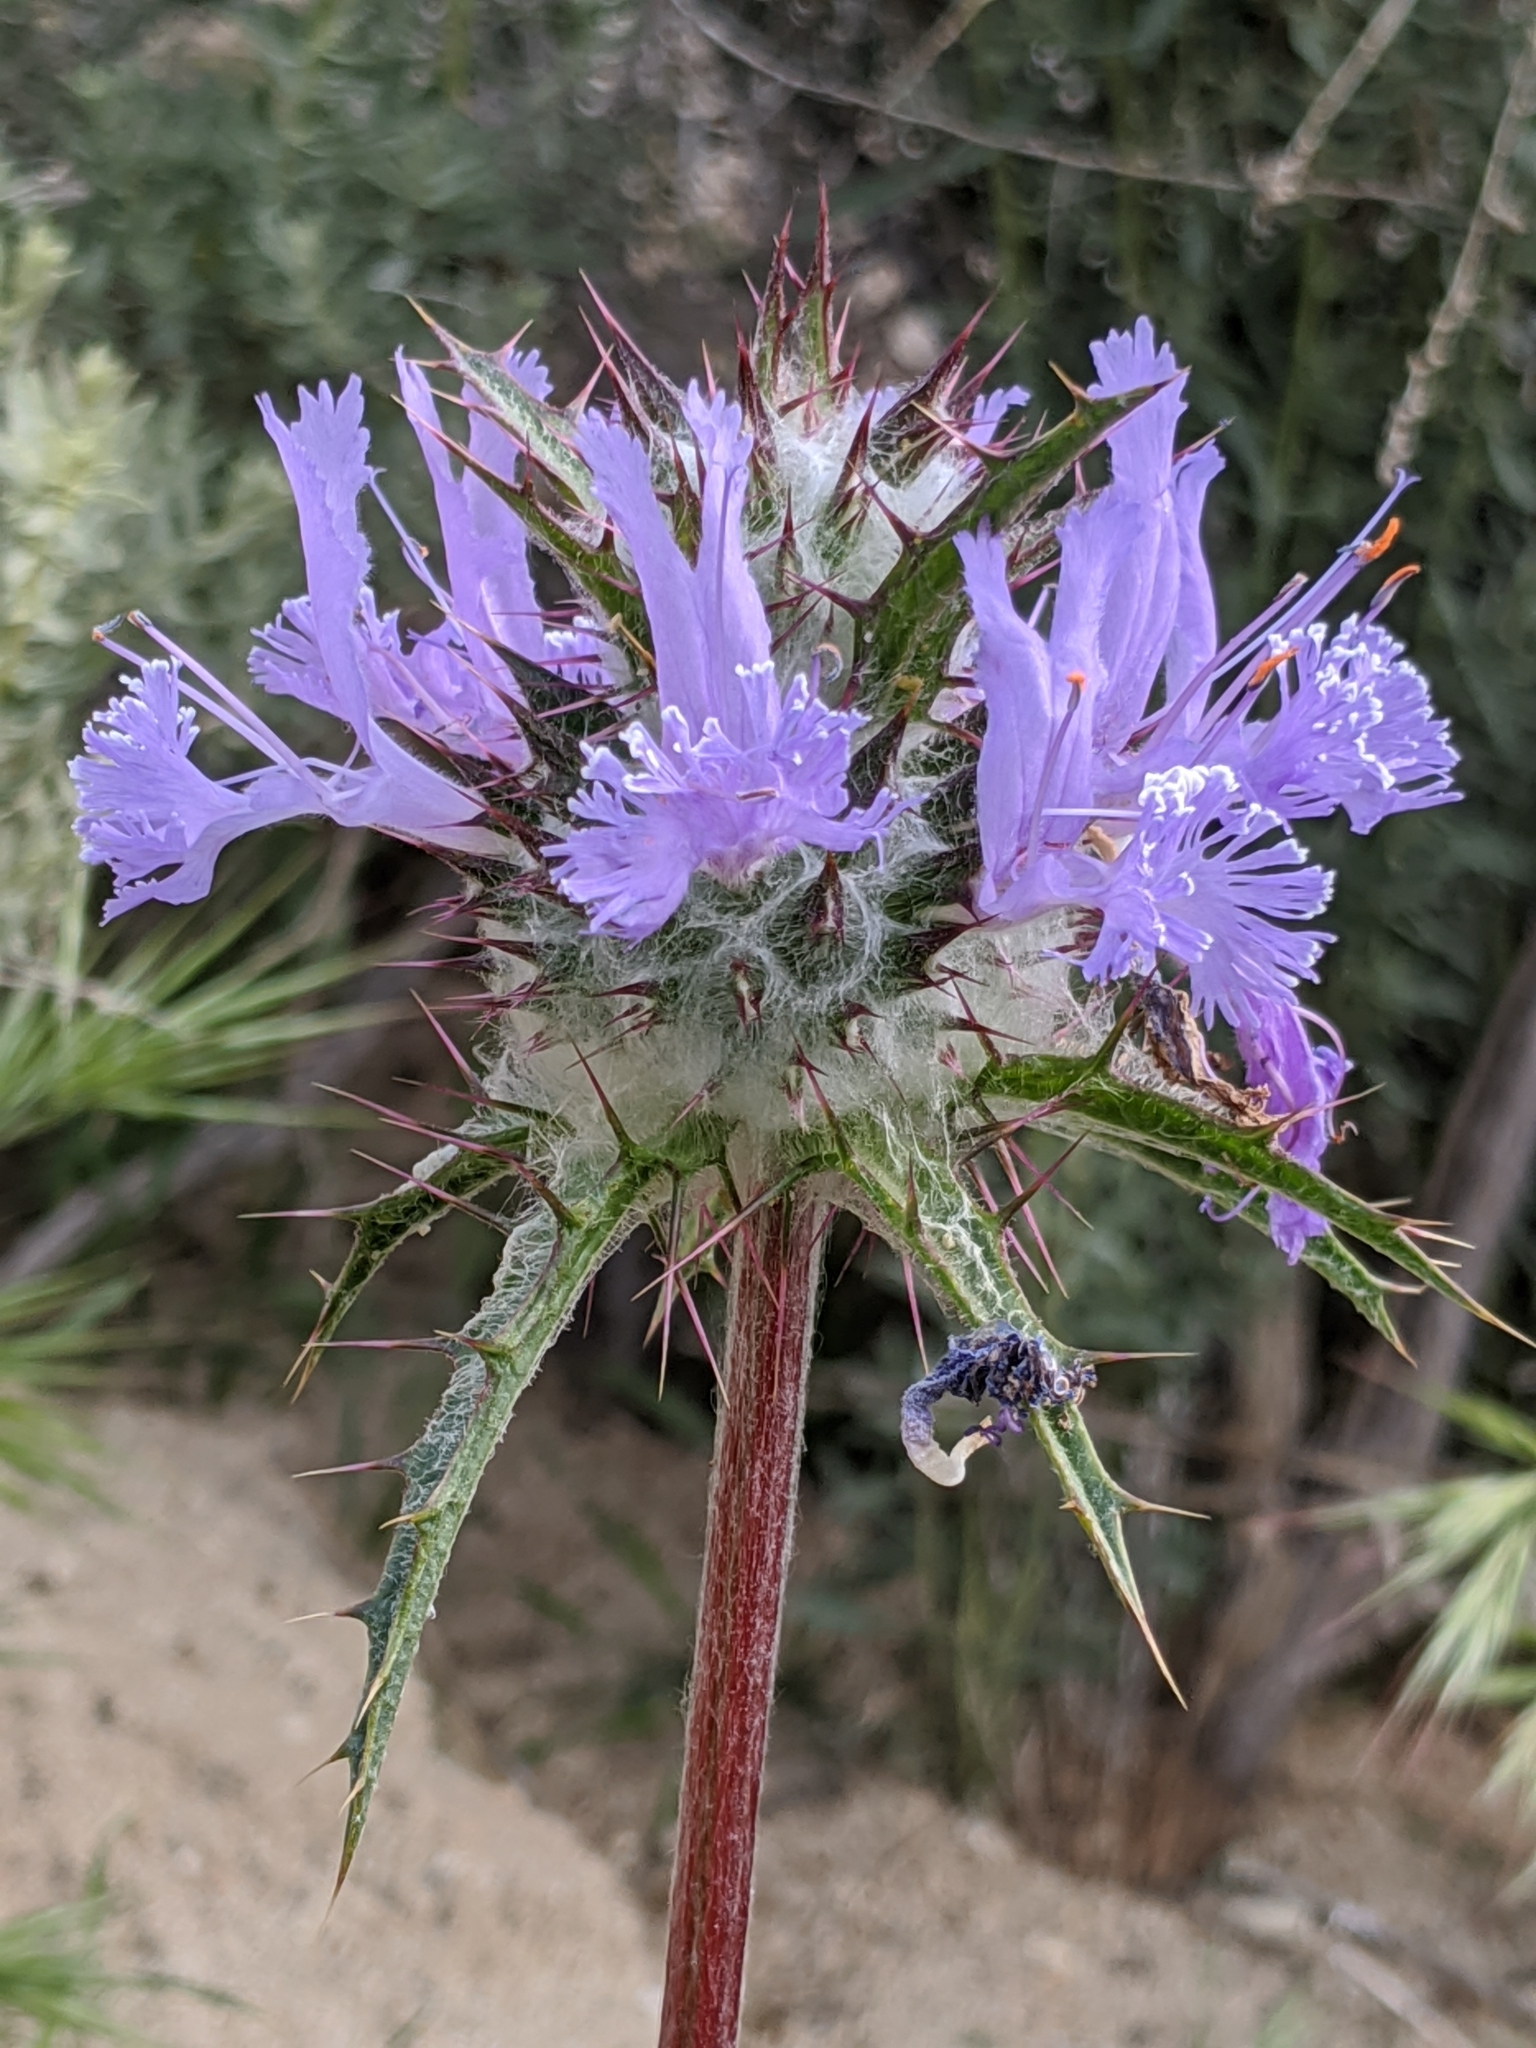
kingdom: Plantae
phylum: Tracheophyta
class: Magnoliopsida
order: Lamiales
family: Lamiaceae
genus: Salvia
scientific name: Salvia carduacea
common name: Thistle sage
